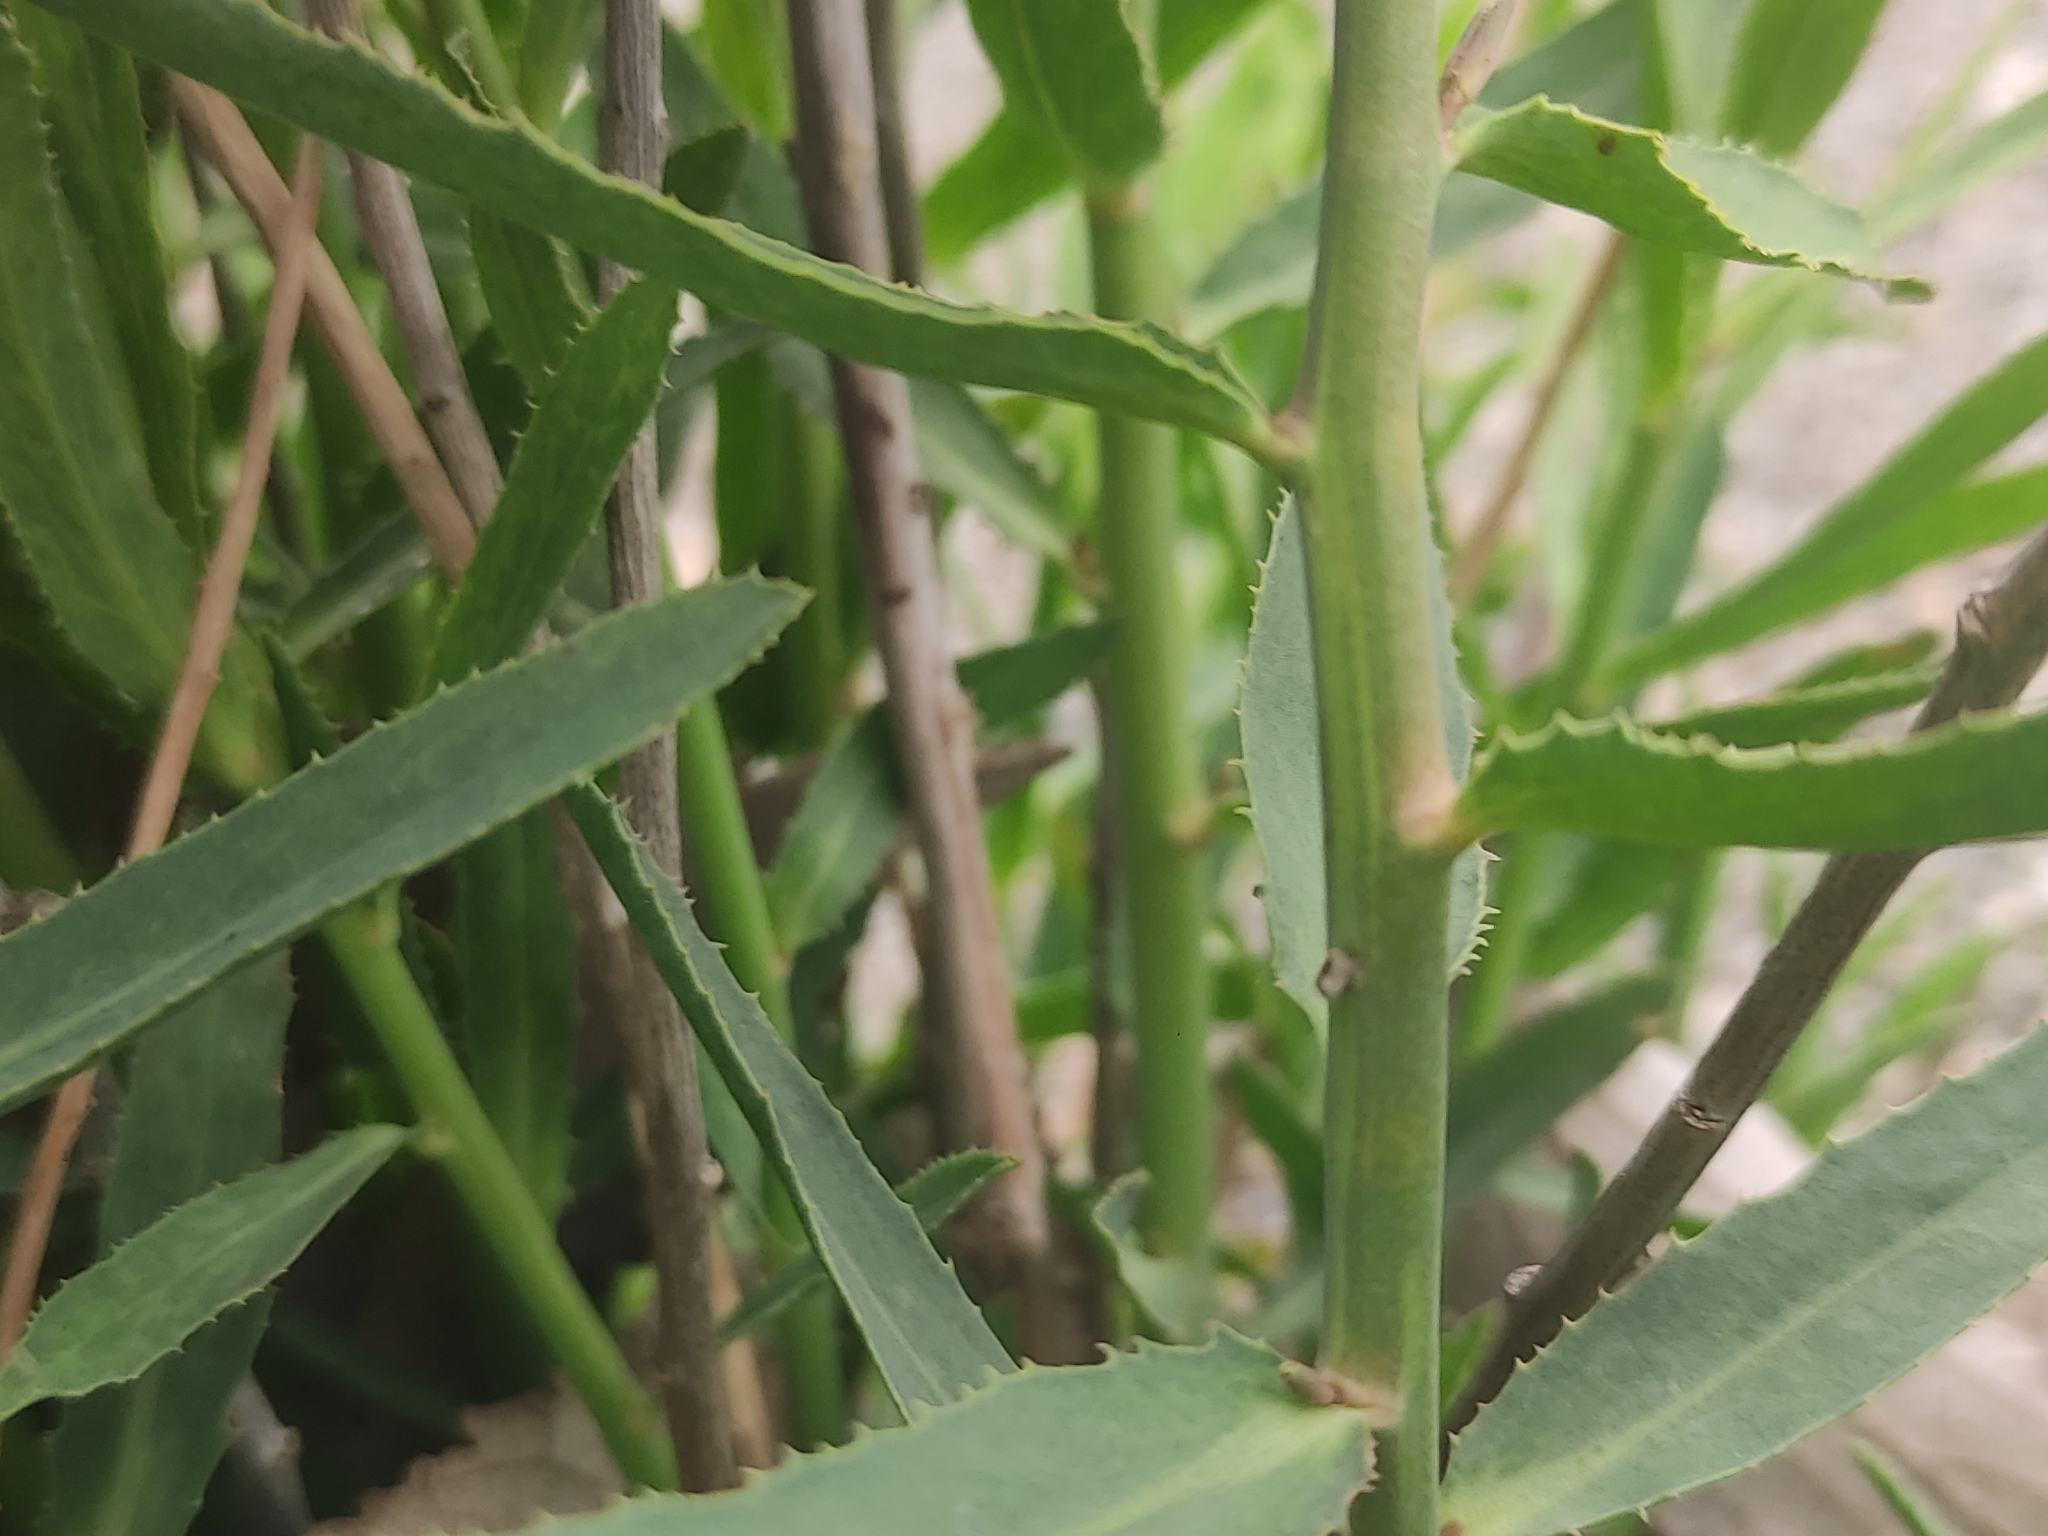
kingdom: Plantae
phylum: Tracheophyta
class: Magnoliopsida
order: Malpighiales
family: Euphorbiaceae
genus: Euphorbia
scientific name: Euphorbia serrata
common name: Serrate spurge
